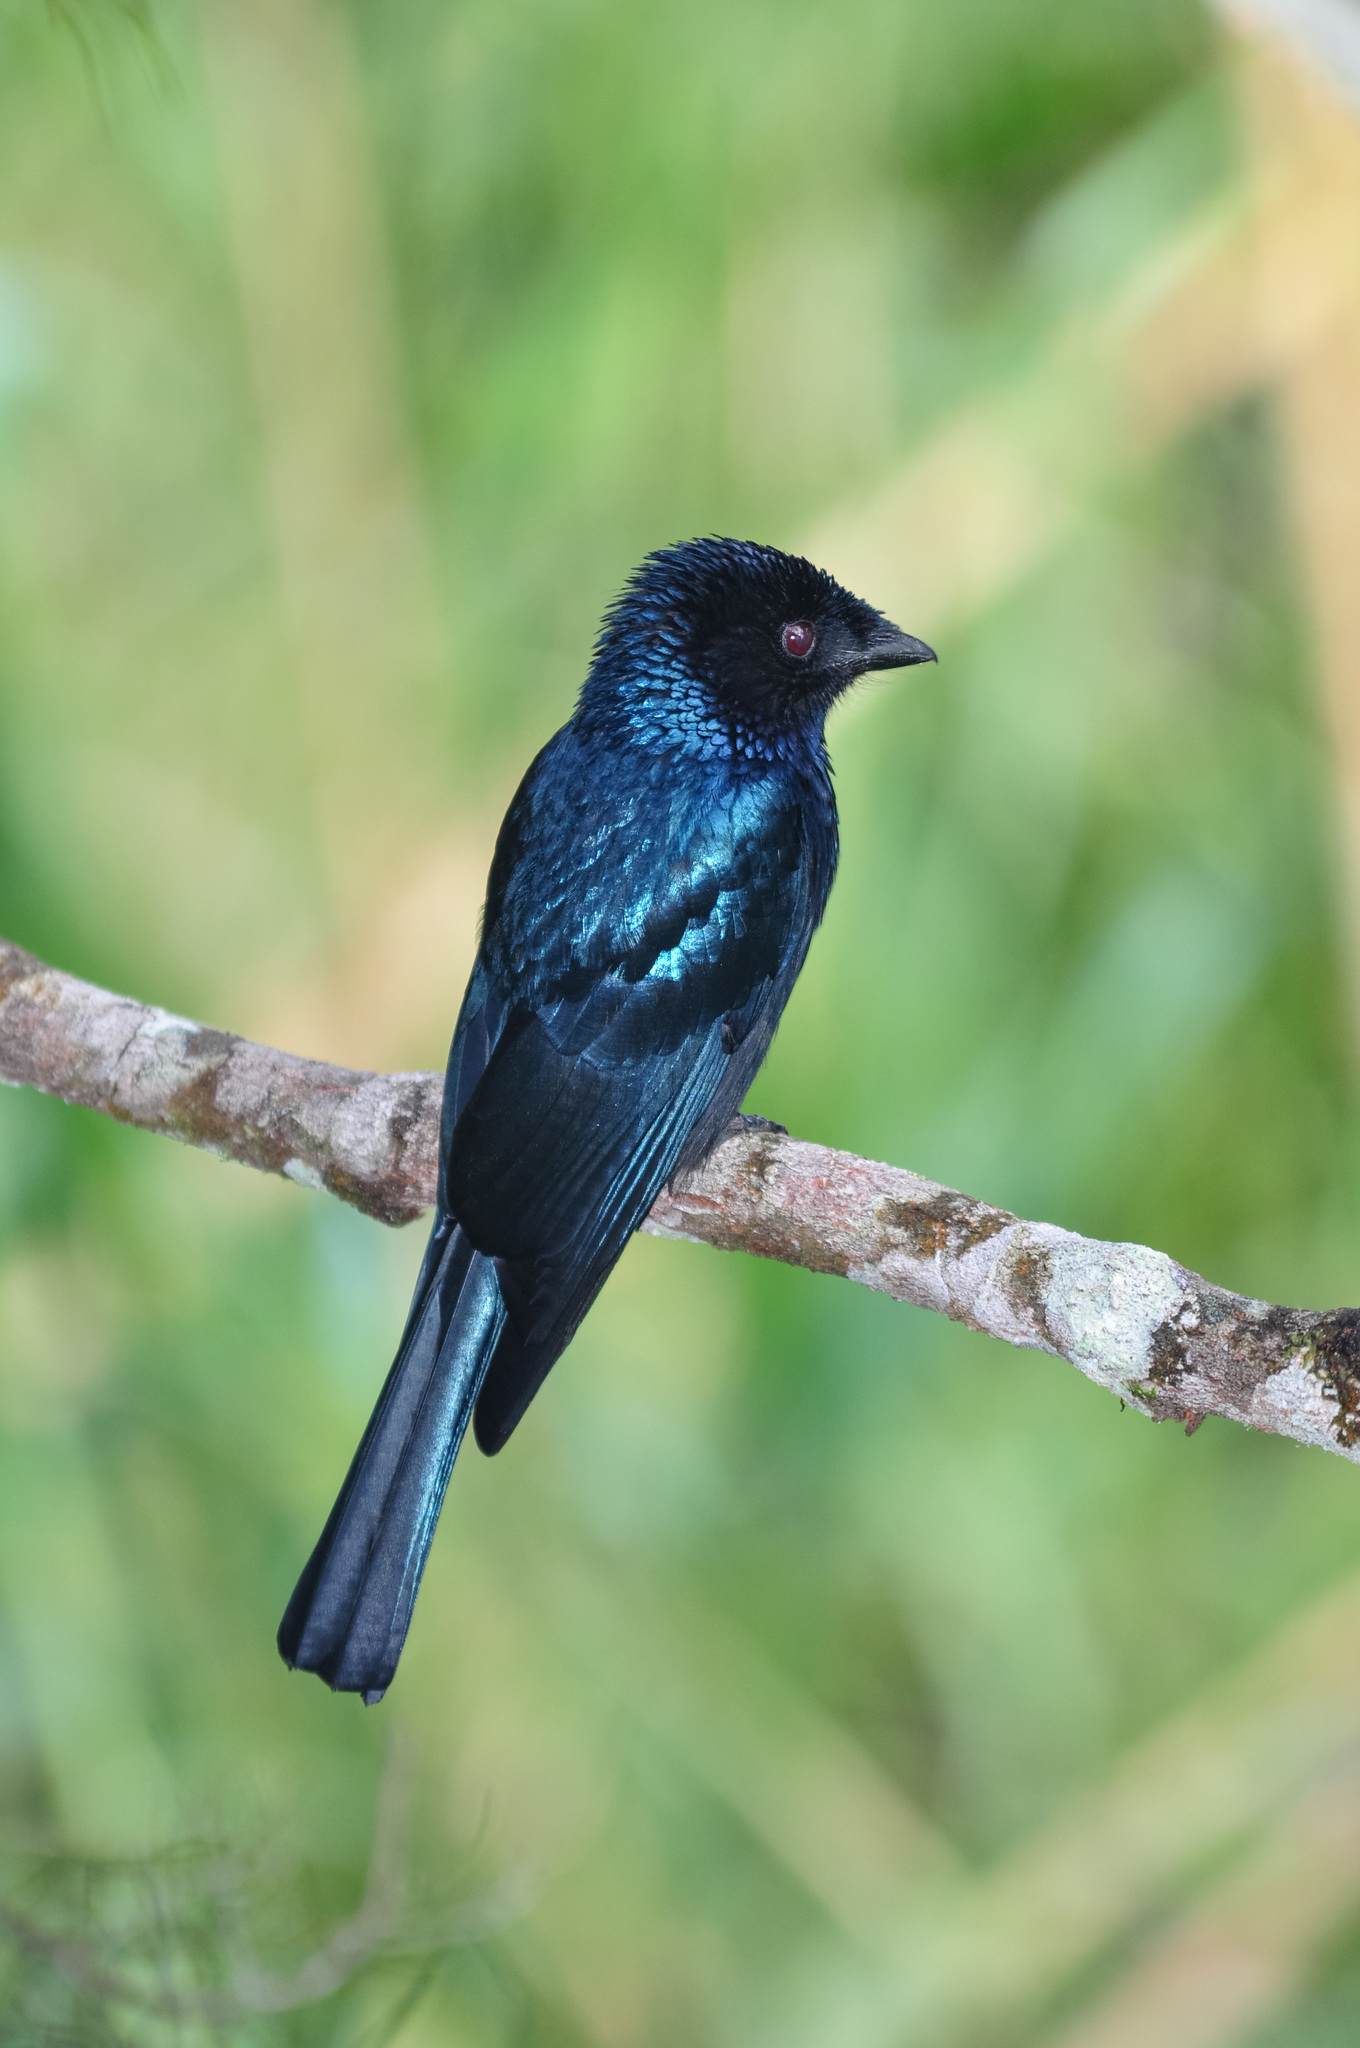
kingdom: Animalia
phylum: Chordata
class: Aves
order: Passeriformes
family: Dicruridae
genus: Dicrurus
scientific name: Dicrurus remifer
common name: Lesser racket-tailed drongo
